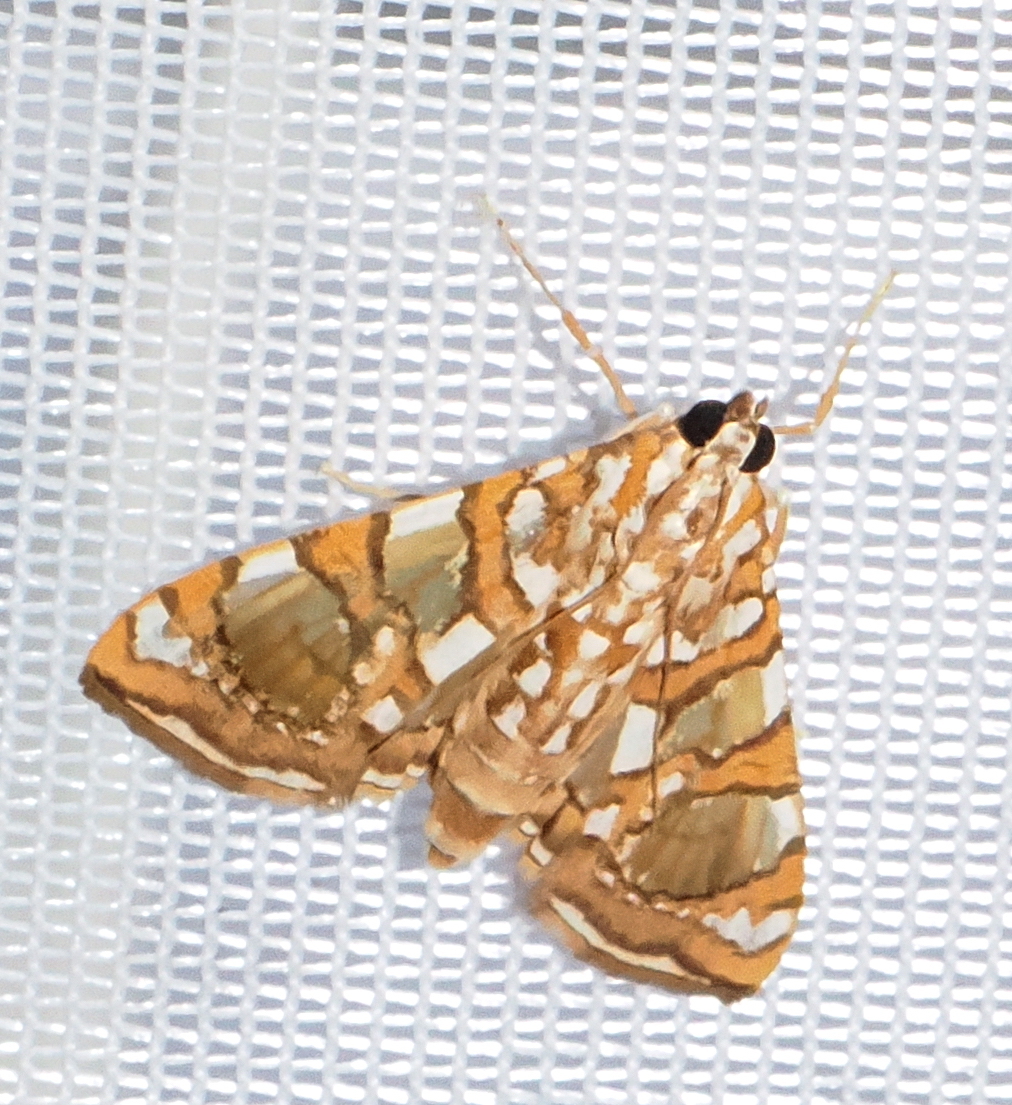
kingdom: Animalia
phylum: Arthropoda
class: Insecta
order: Lepidoptera
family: Crambidae
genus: Glyphodes
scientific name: Glyphodes sibillalis
